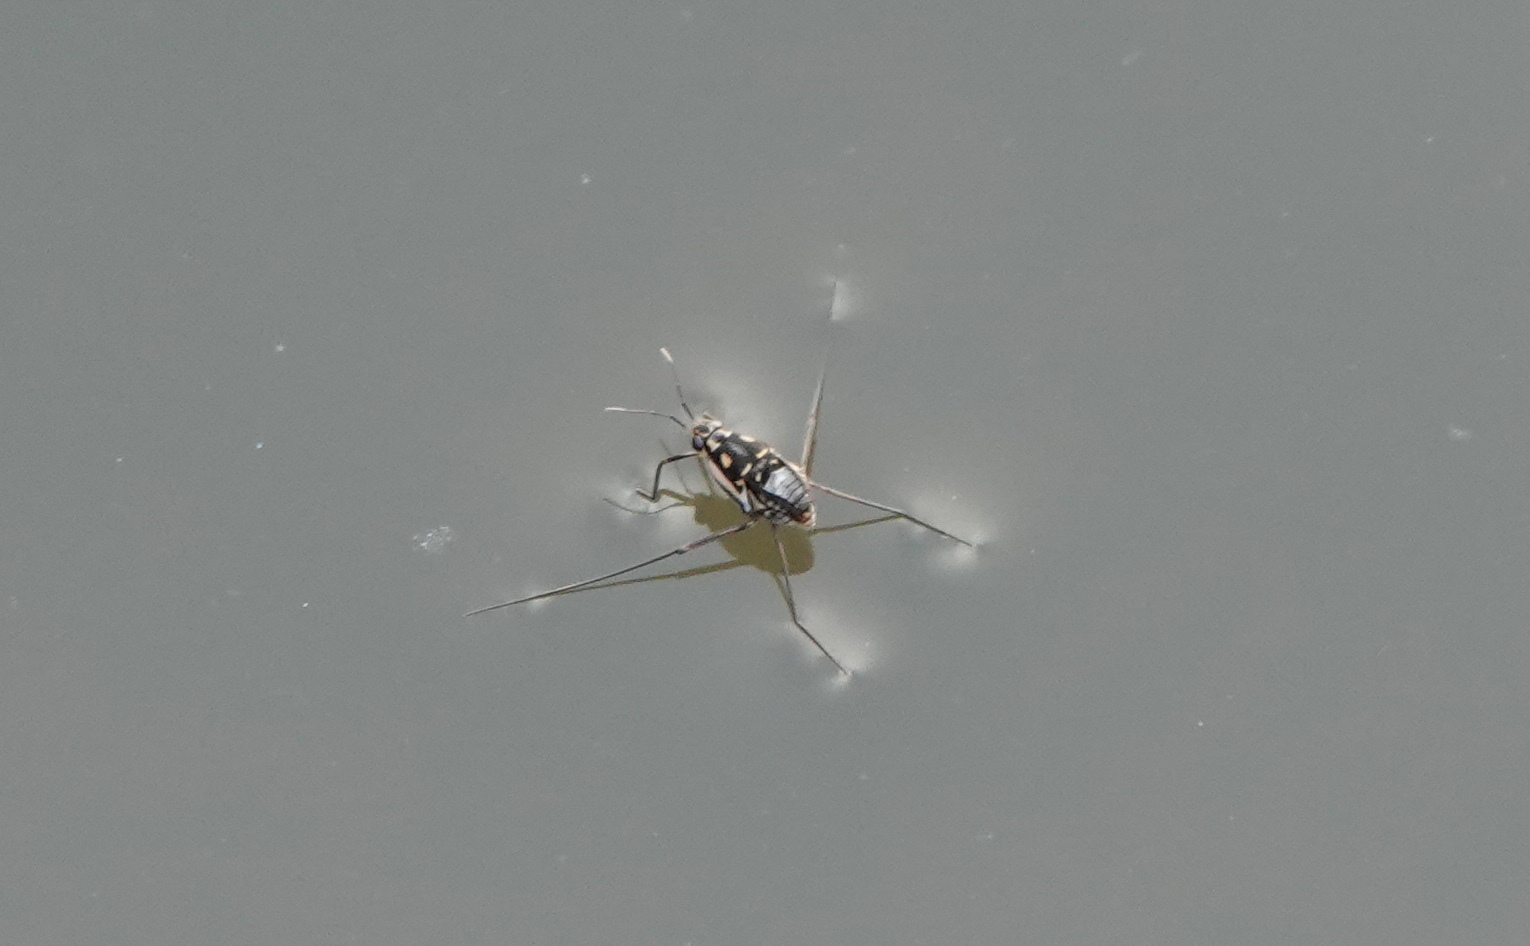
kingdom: Animalia
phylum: Arthropoda
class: Insecta
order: Hemiptera
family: Gerridae
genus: Trepobates
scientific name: Trepobates subnitidus
